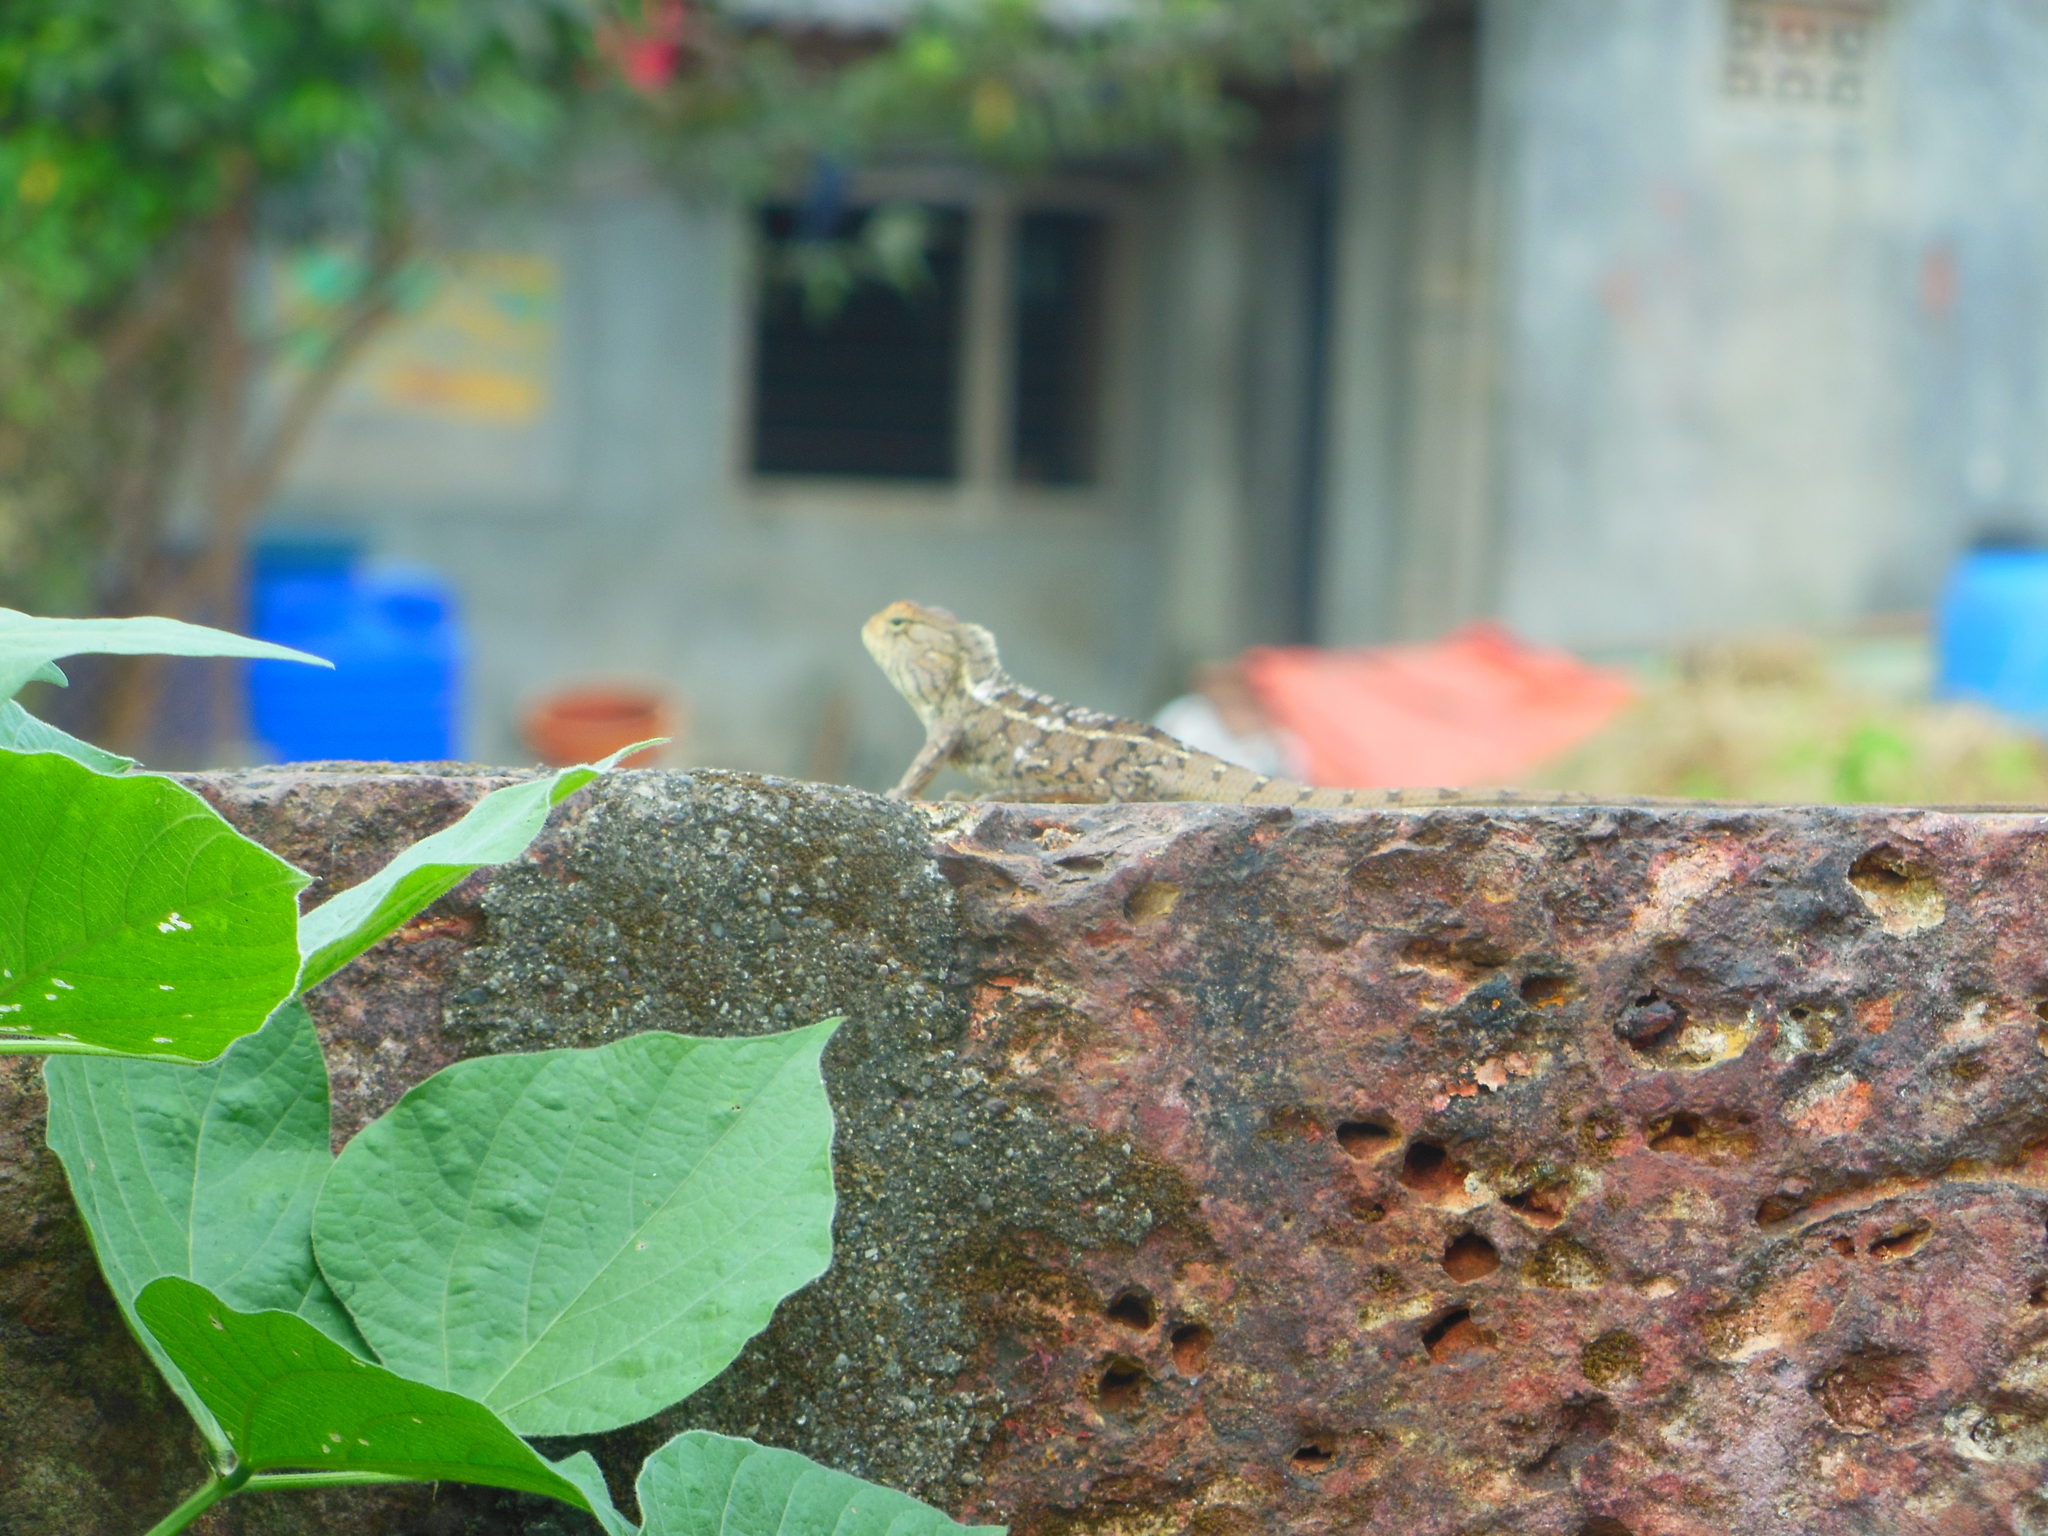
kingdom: Animalia
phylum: Chordata
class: Squamata
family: Agamidae
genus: Calotes
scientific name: Calotes versicolor
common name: Oriental garden lizard
